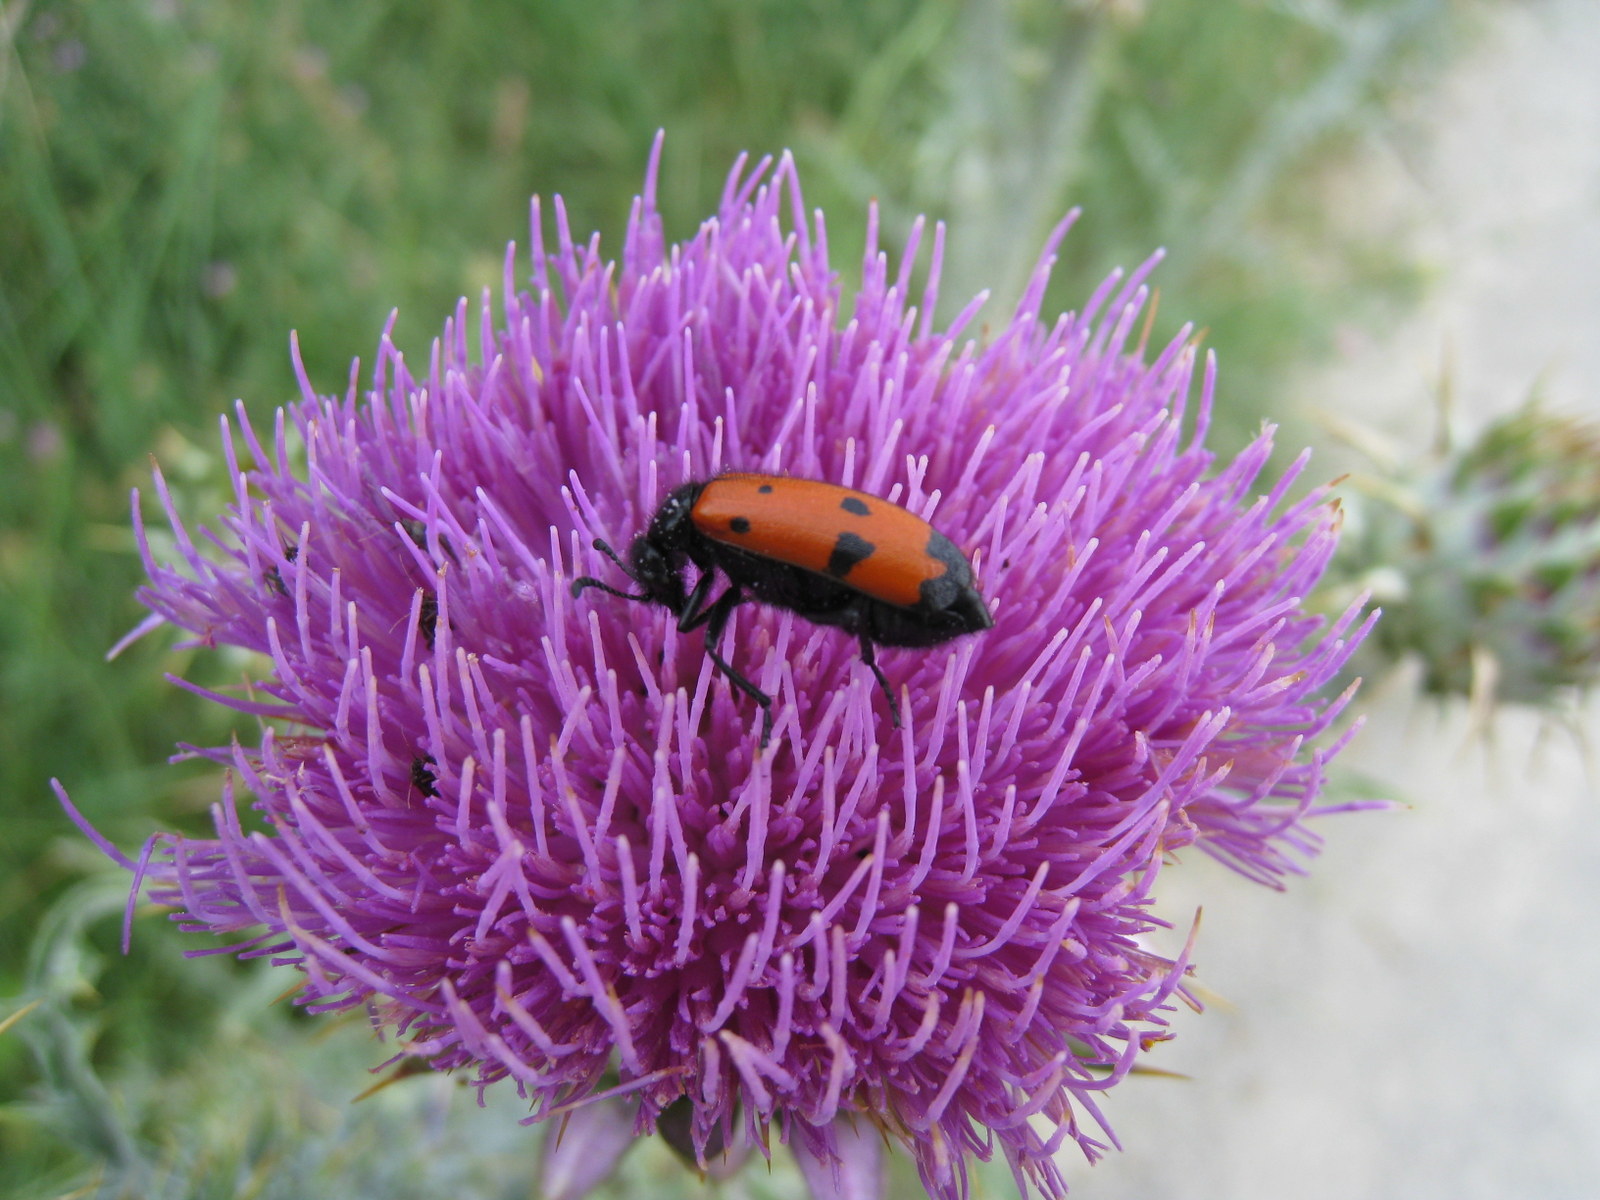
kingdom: Animalia
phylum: Arthropoda
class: Insecta
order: Coleoptera
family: Meloidae
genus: Mylabris
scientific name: Mylabris quadripunctata
